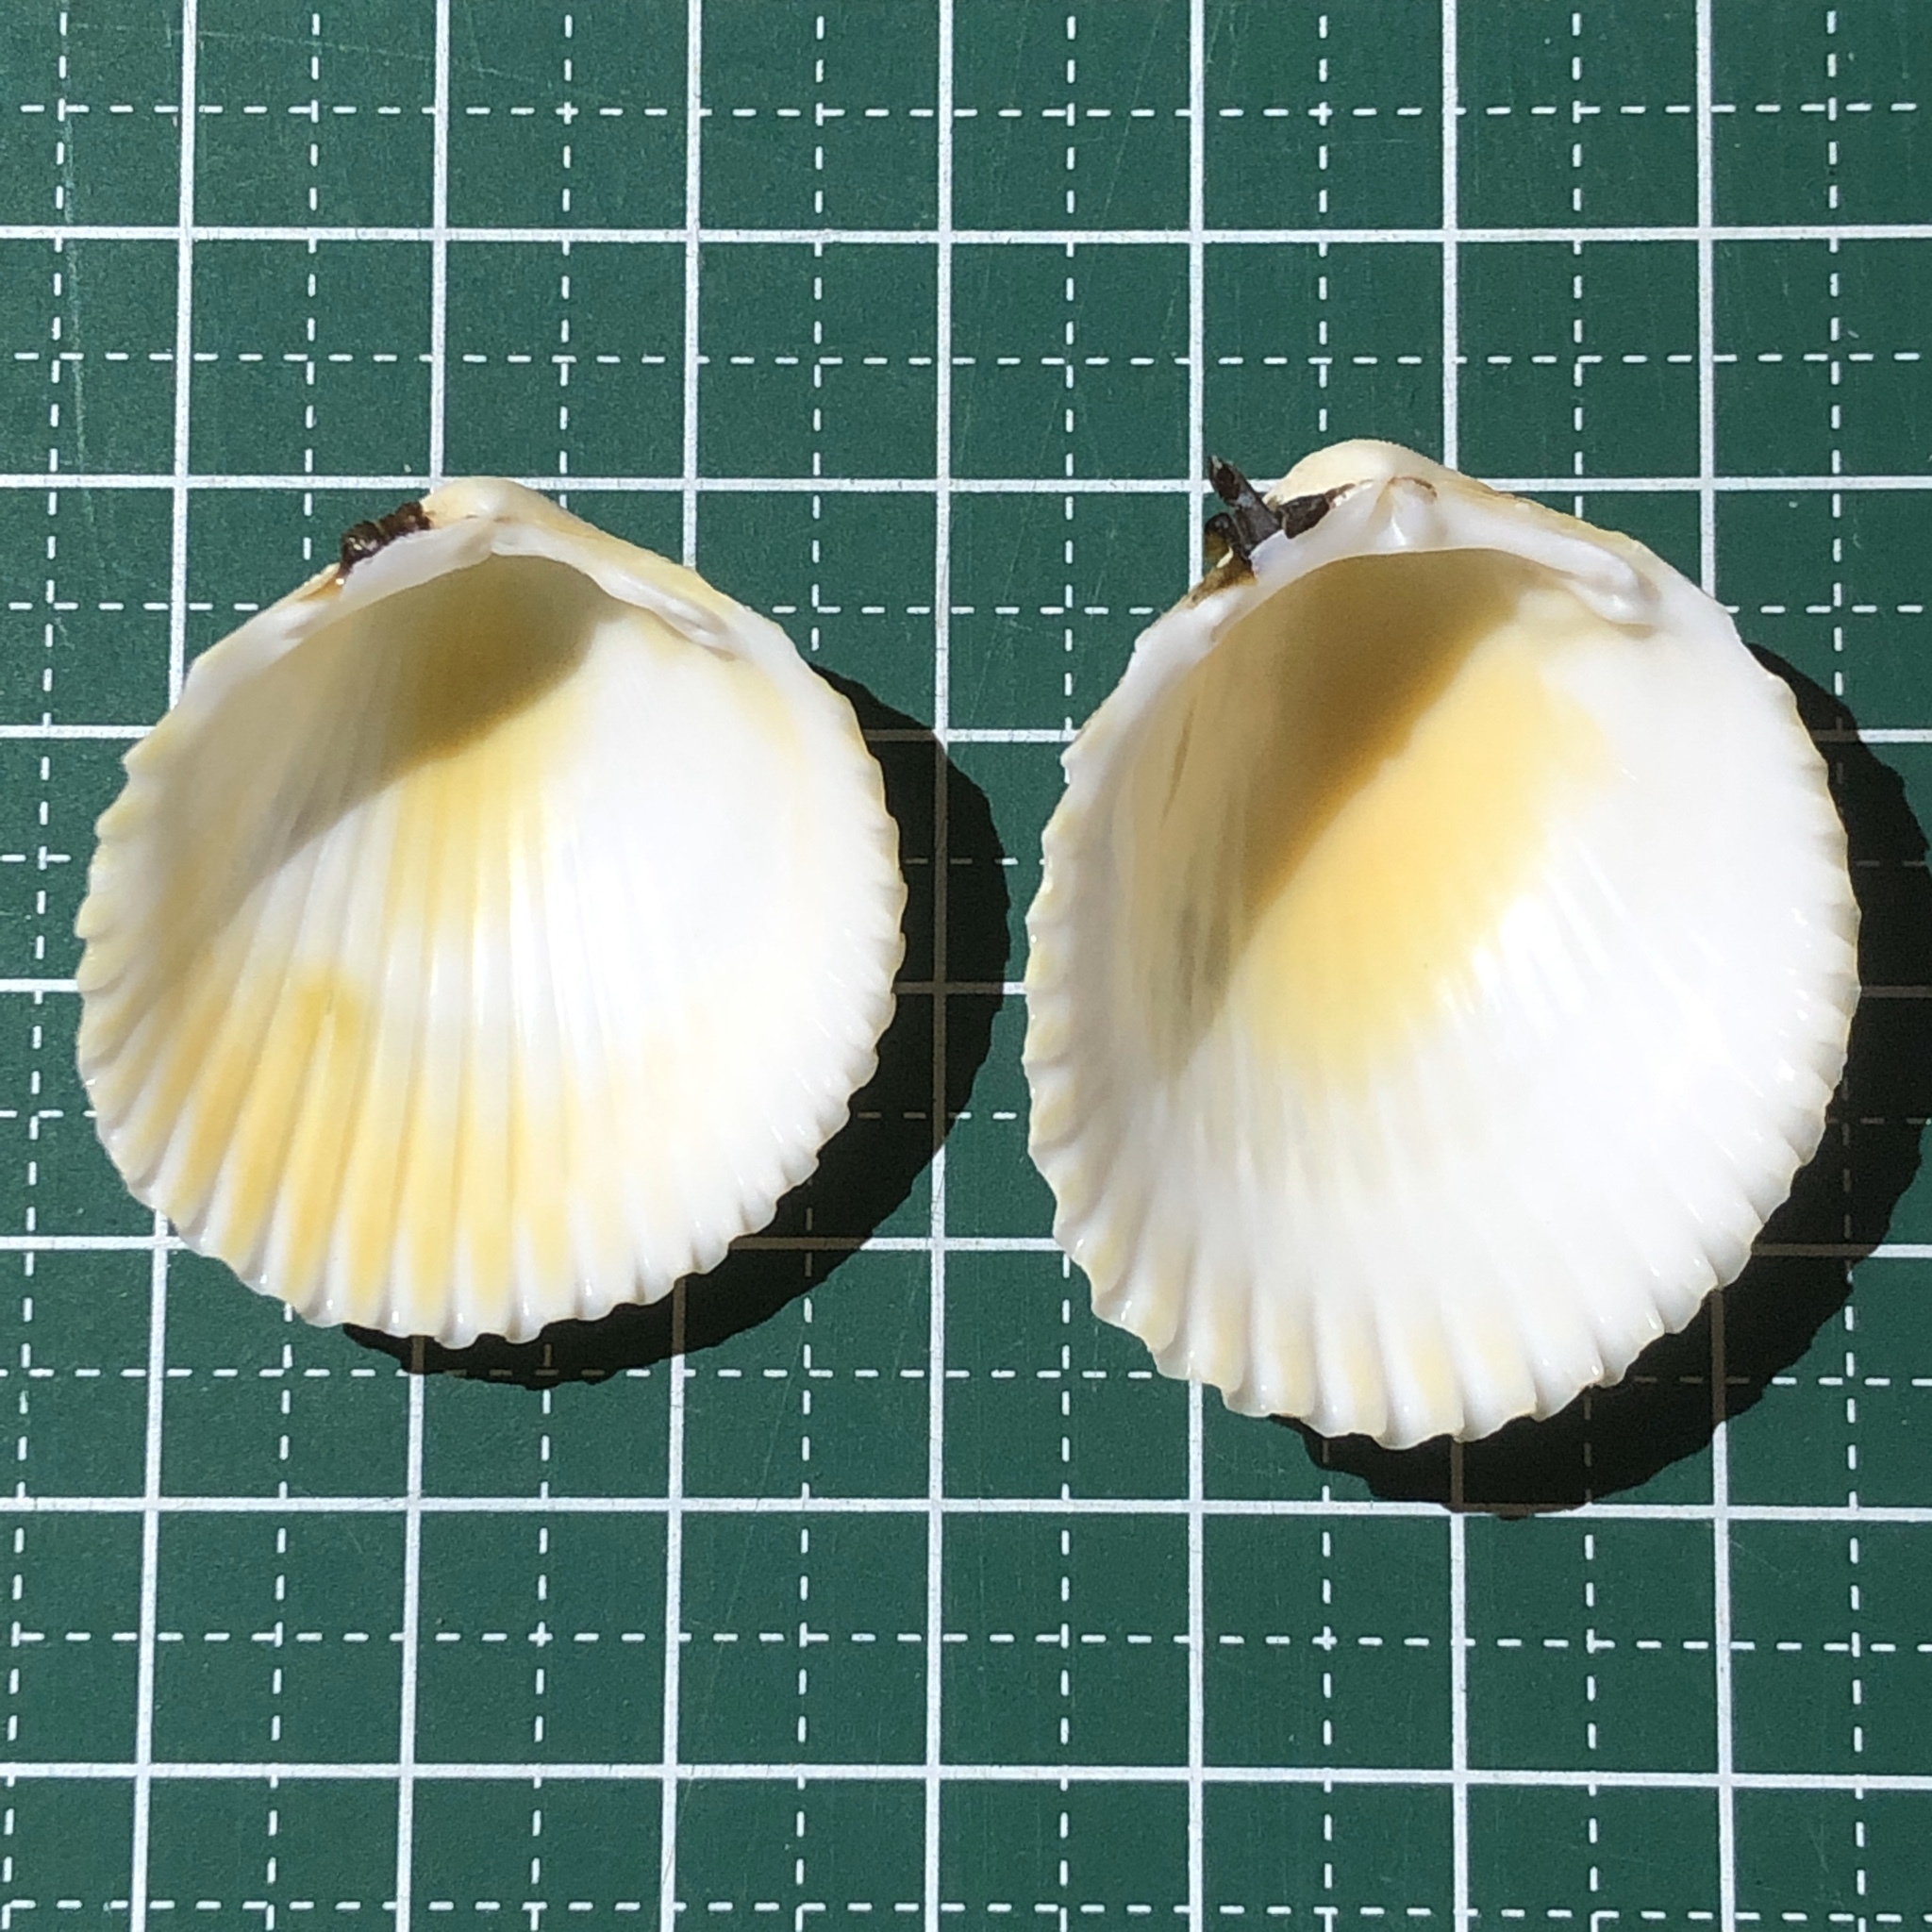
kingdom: Animalia
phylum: Mollusca
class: Bivalvia
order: Cardiida
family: Cardiidae
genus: Vasticardium
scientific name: Vasticardium flavum
